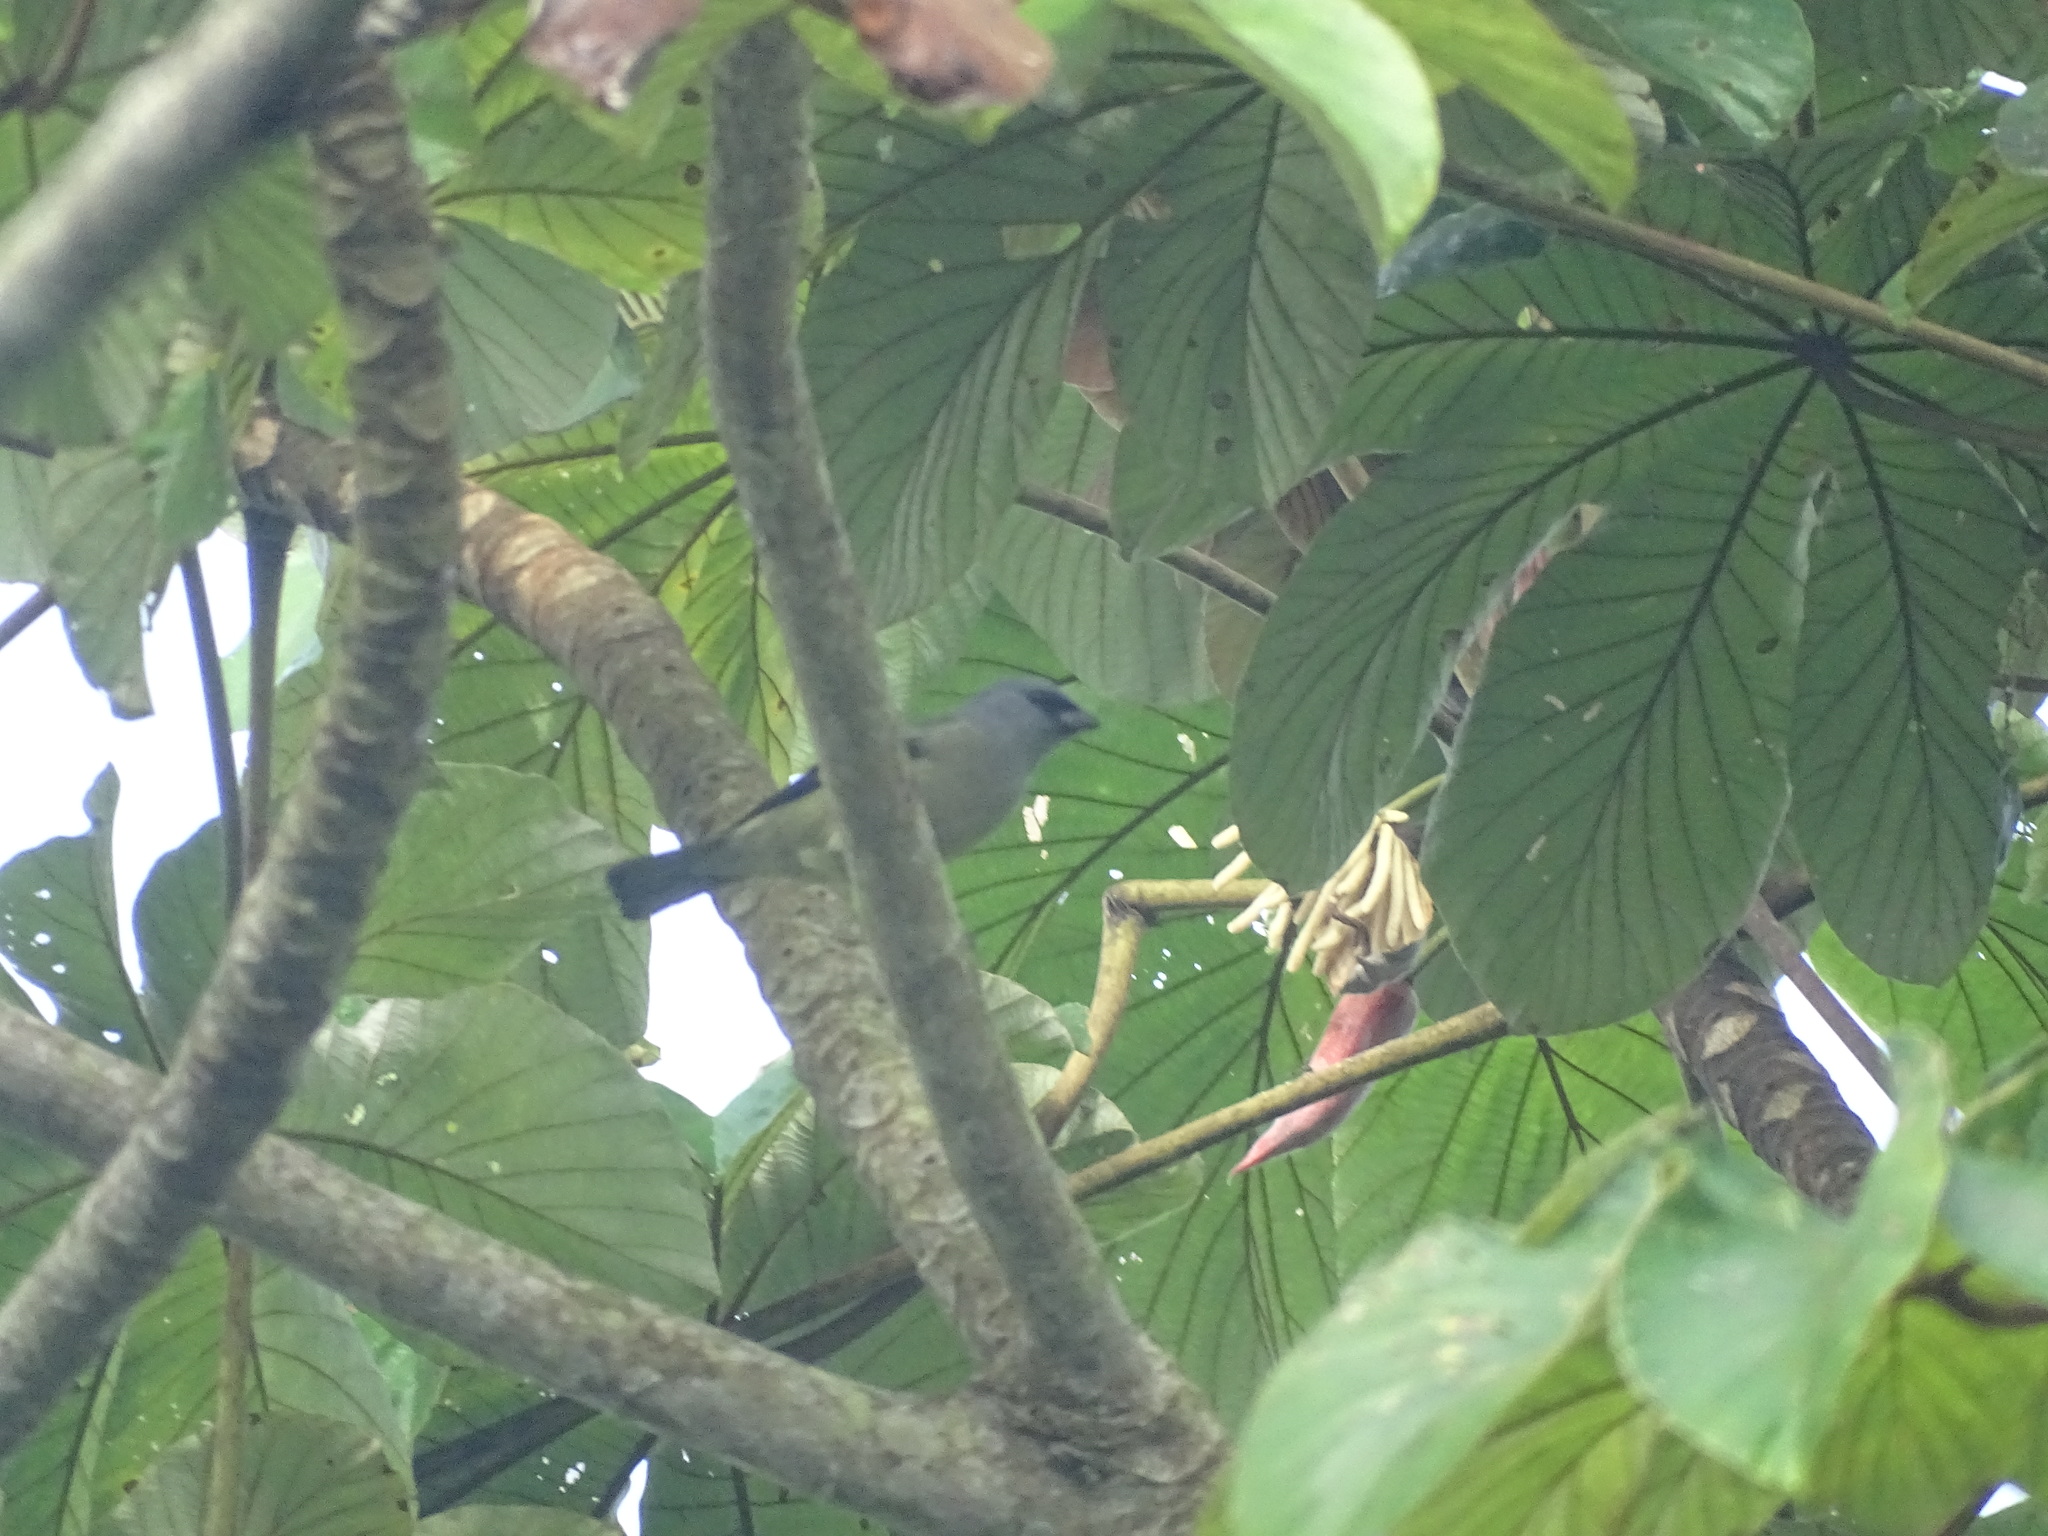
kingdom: Animalia
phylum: Chordata
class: Aves
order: Passeriformes
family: Thraupidae
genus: Thraupis
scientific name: Thraupis abbas
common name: Yellow-winged tanager
